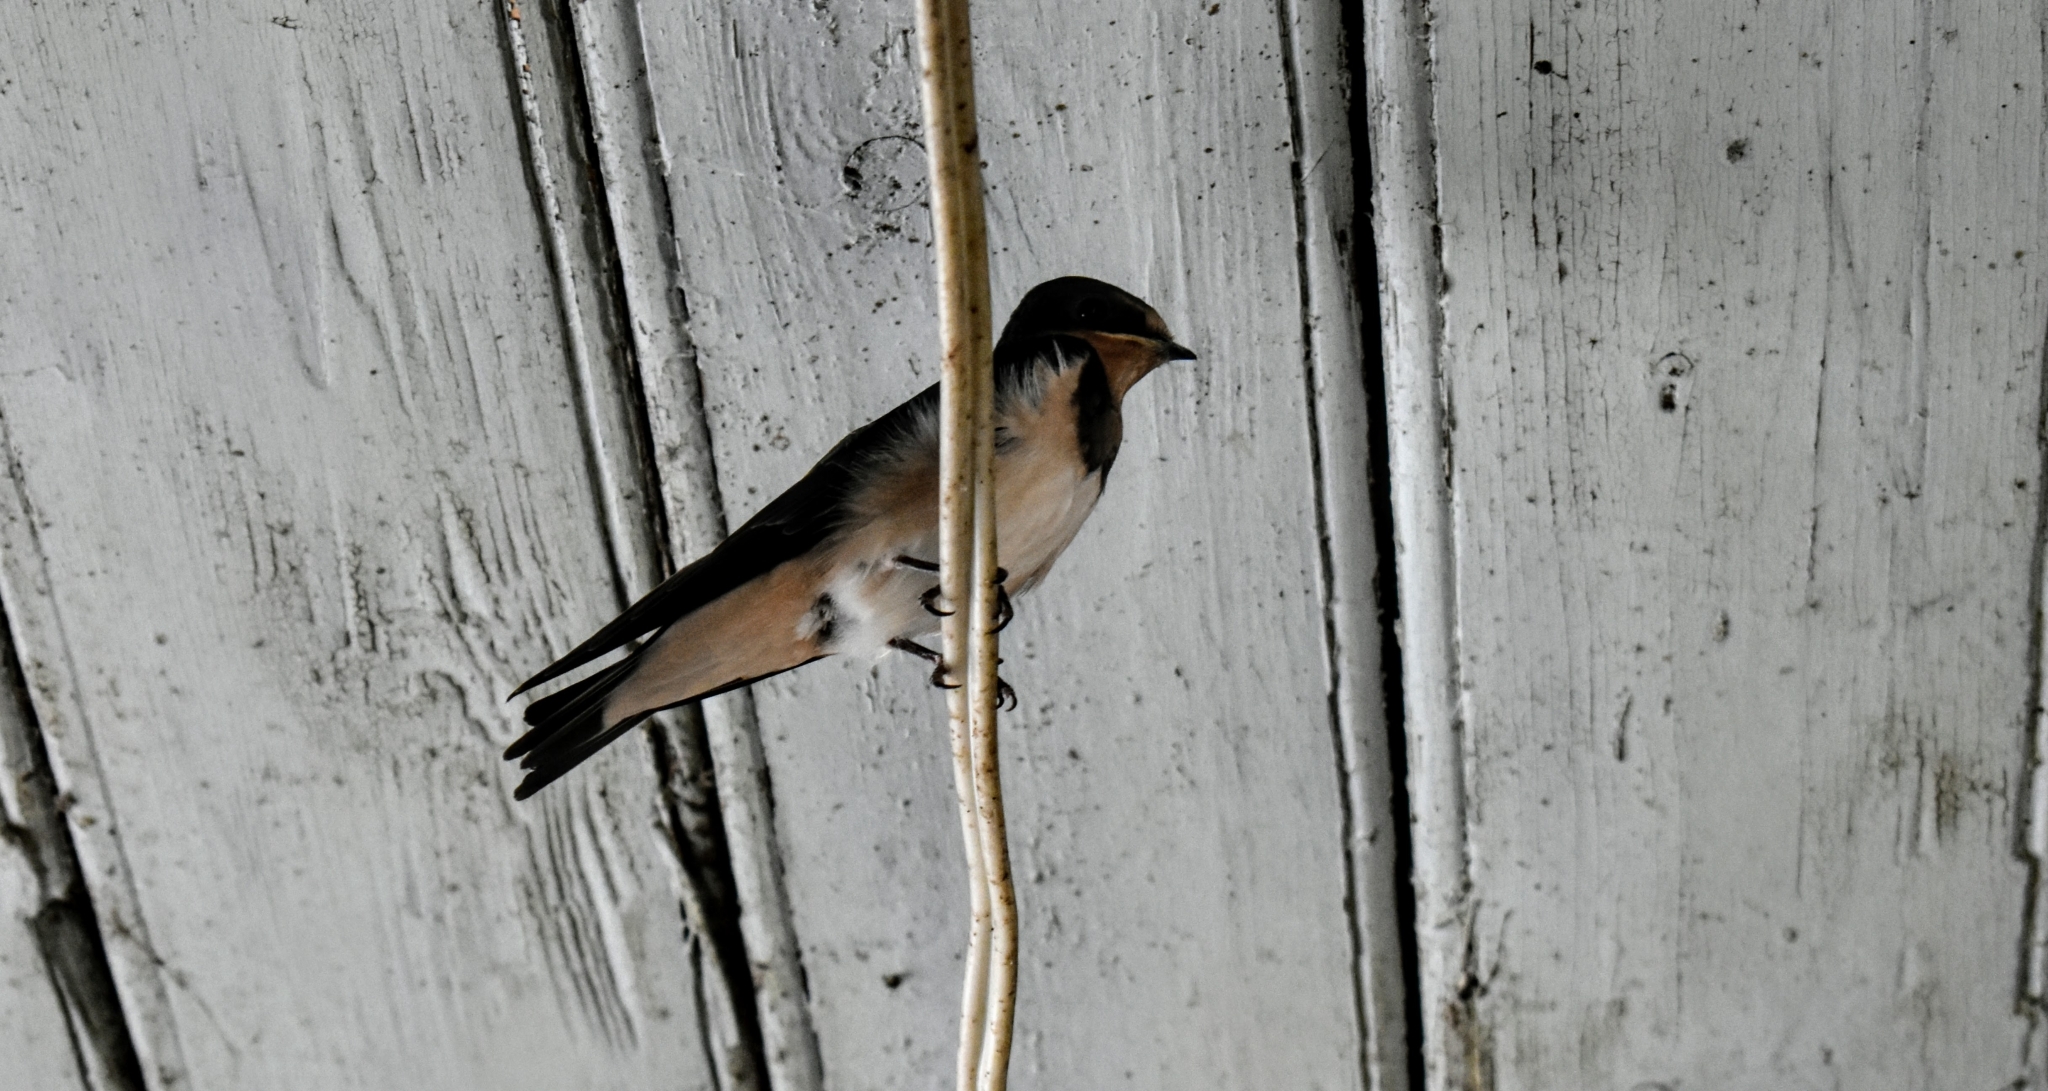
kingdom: Animalia
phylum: Chordata
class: Aves
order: Passeriformes
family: Hirundinidae
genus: Hirundo
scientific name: Hirundo rustica
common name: Barn swallow
